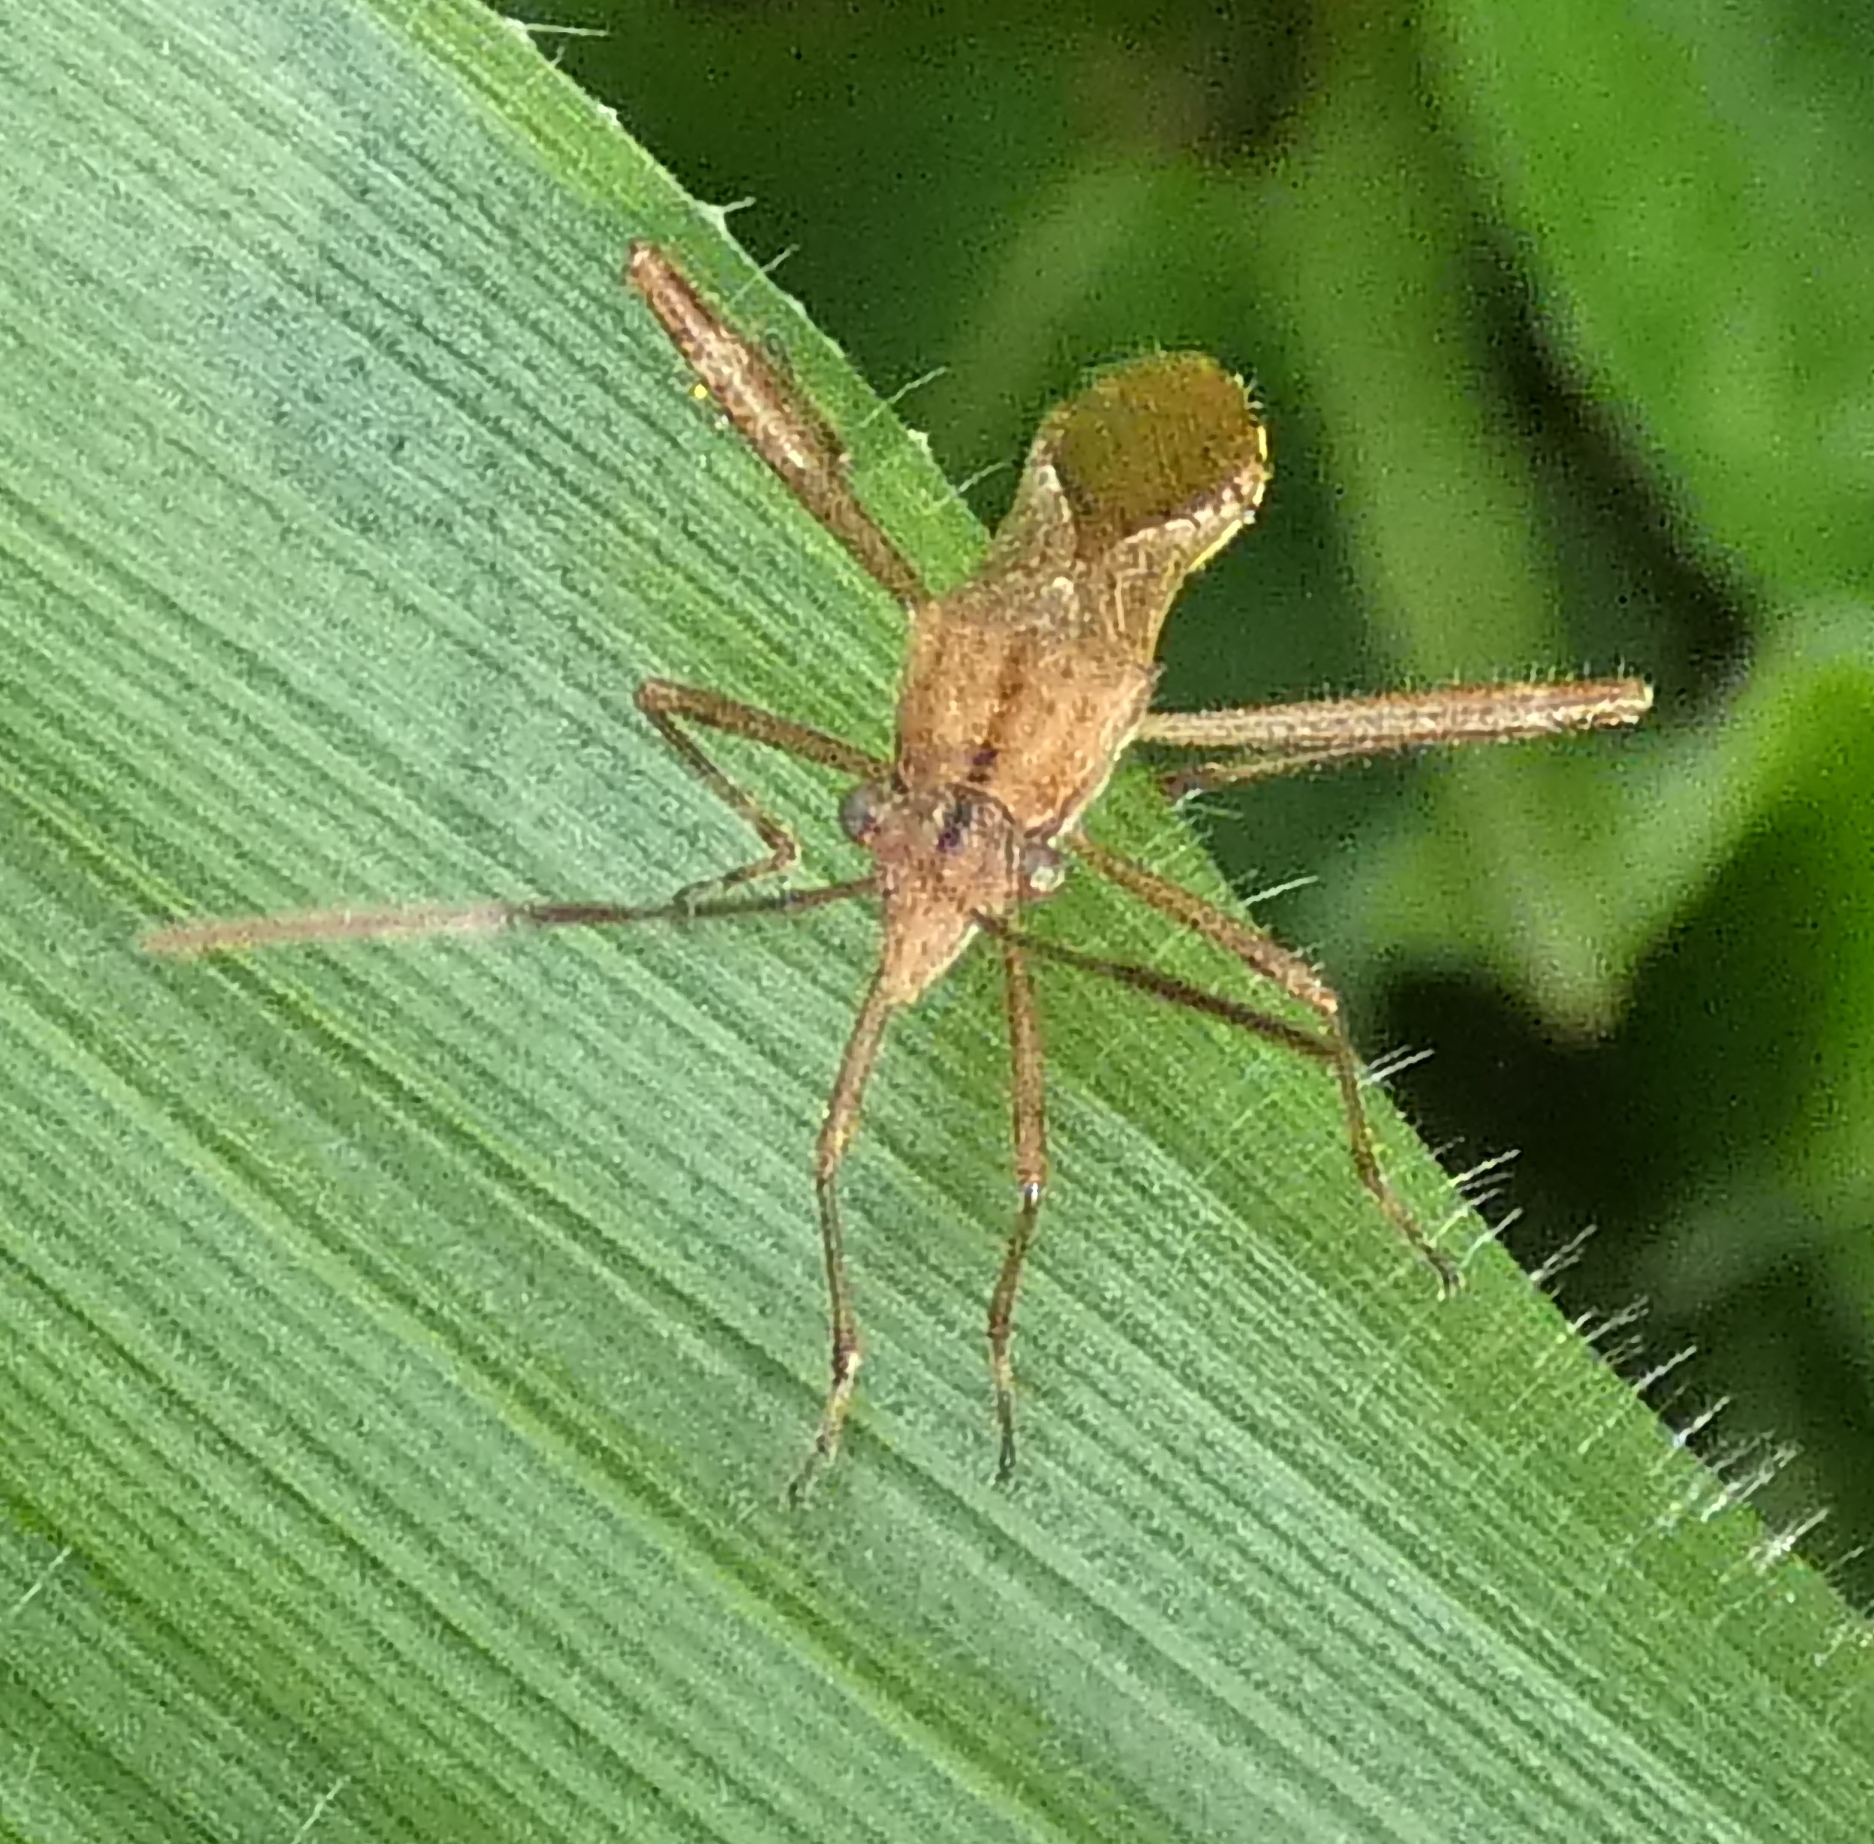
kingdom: Animalia
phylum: Arthropoda
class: Insecta
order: Hemiptera
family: Alydidae
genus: Neomegalotomus
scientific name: Neomegalotomus parvus
